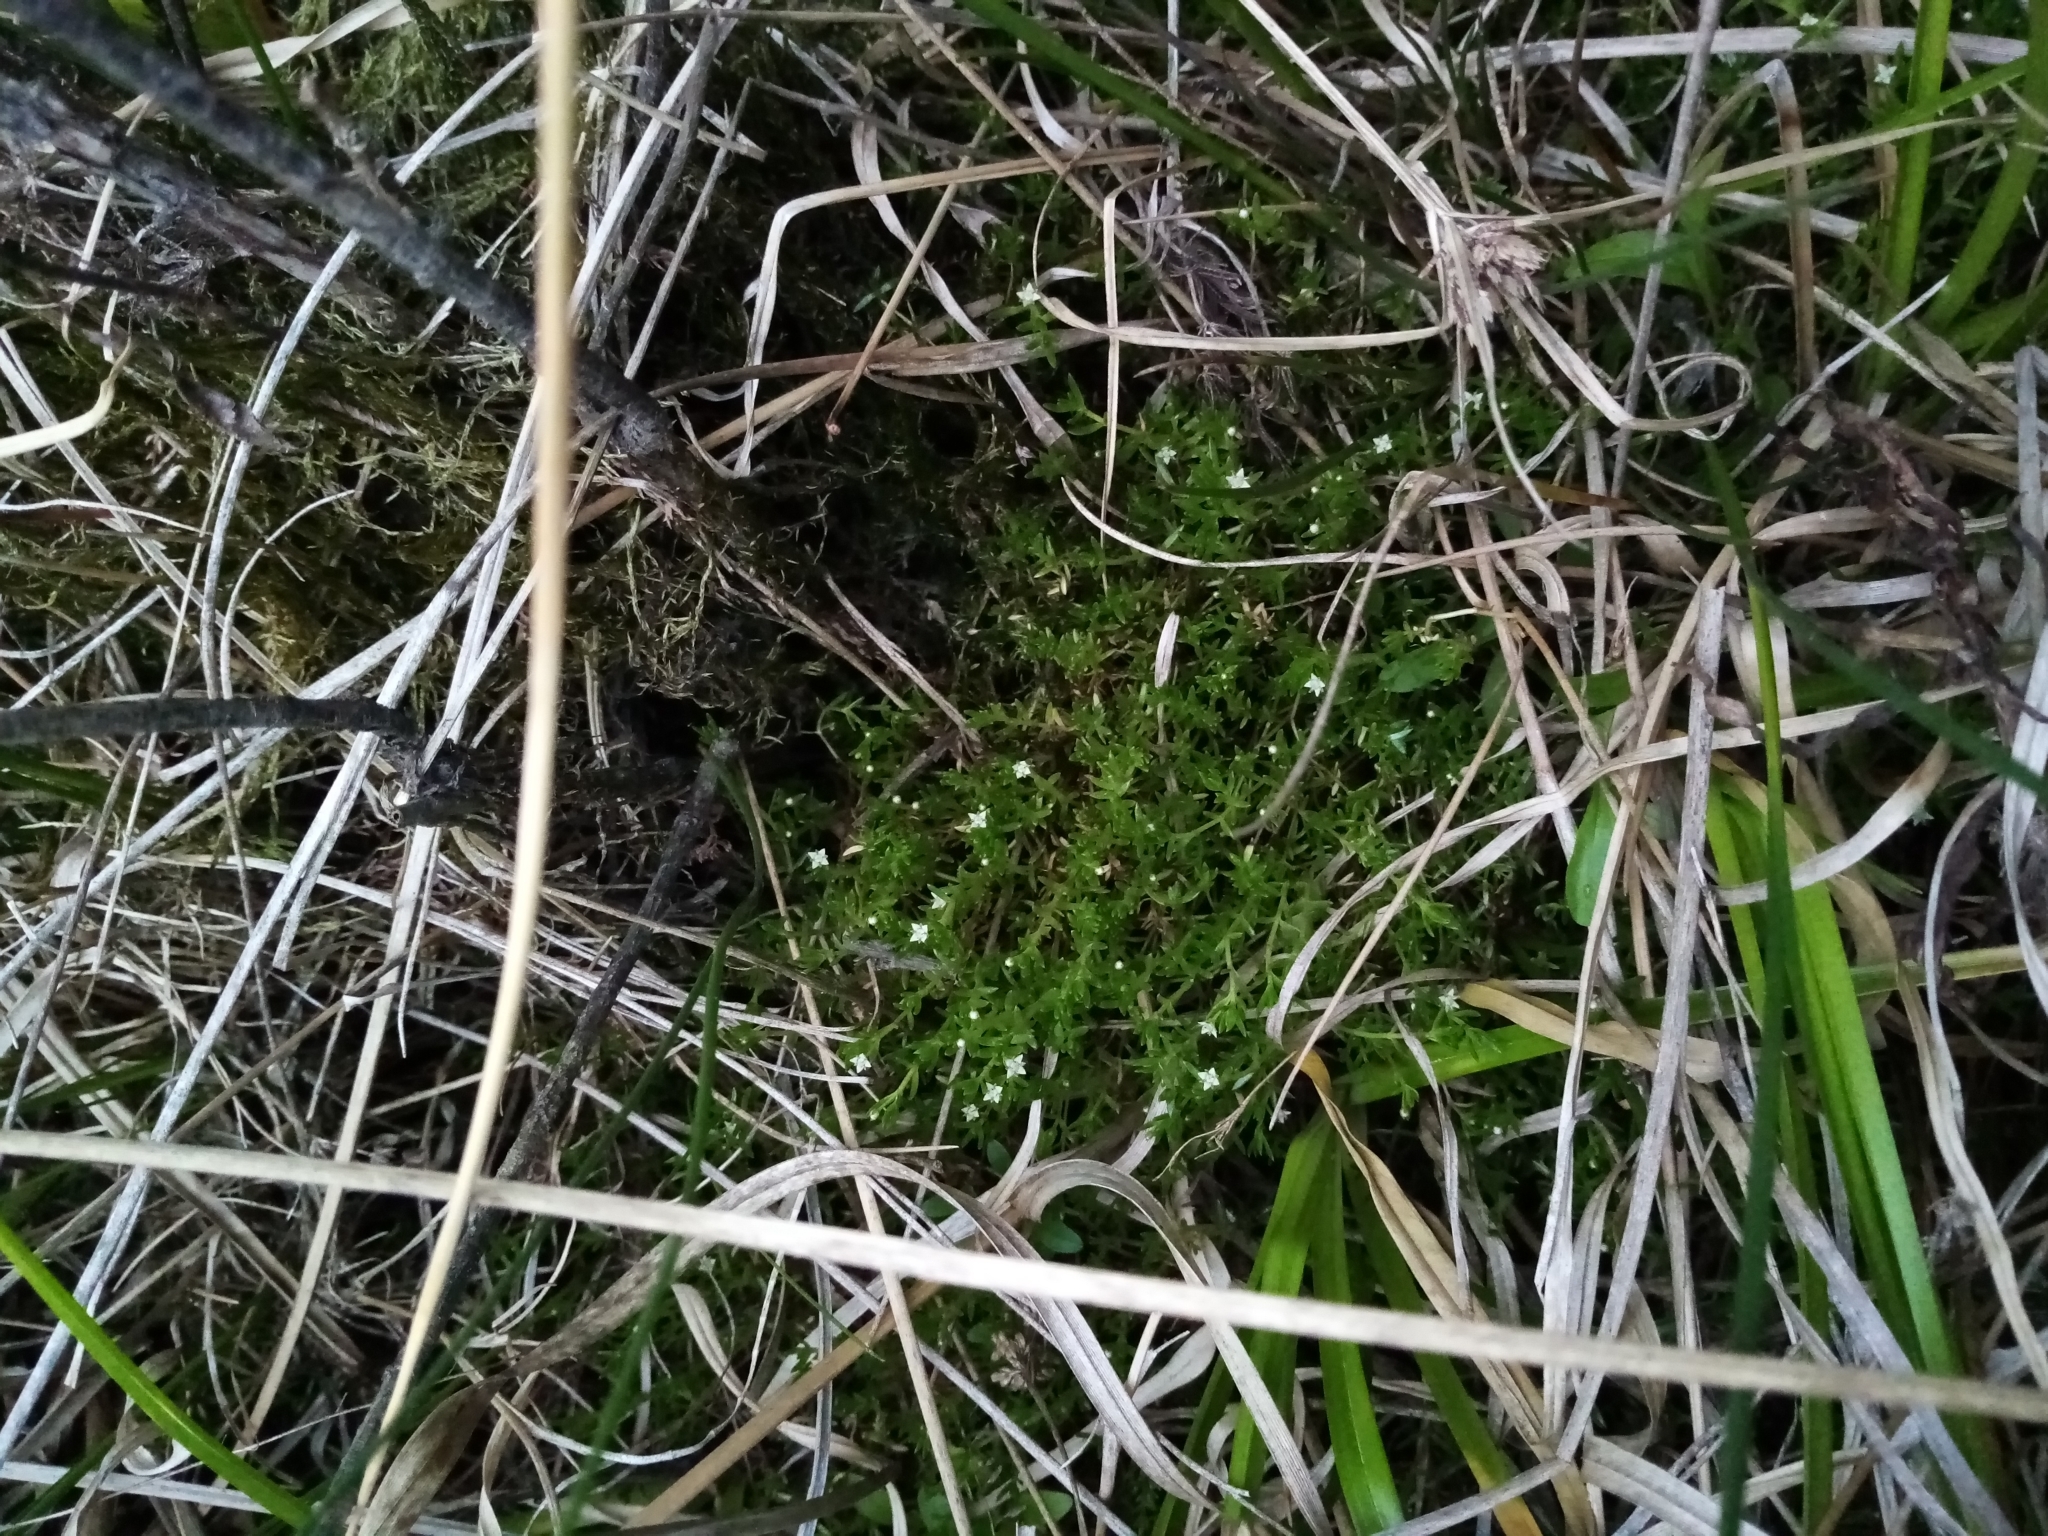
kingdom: Plantae
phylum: Tracheophyta
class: Magnoliopsida
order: Saxifragales
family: Crassulaceae
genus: Crassula
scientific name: Crassula helmsii
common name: New zealand pigmyweed
